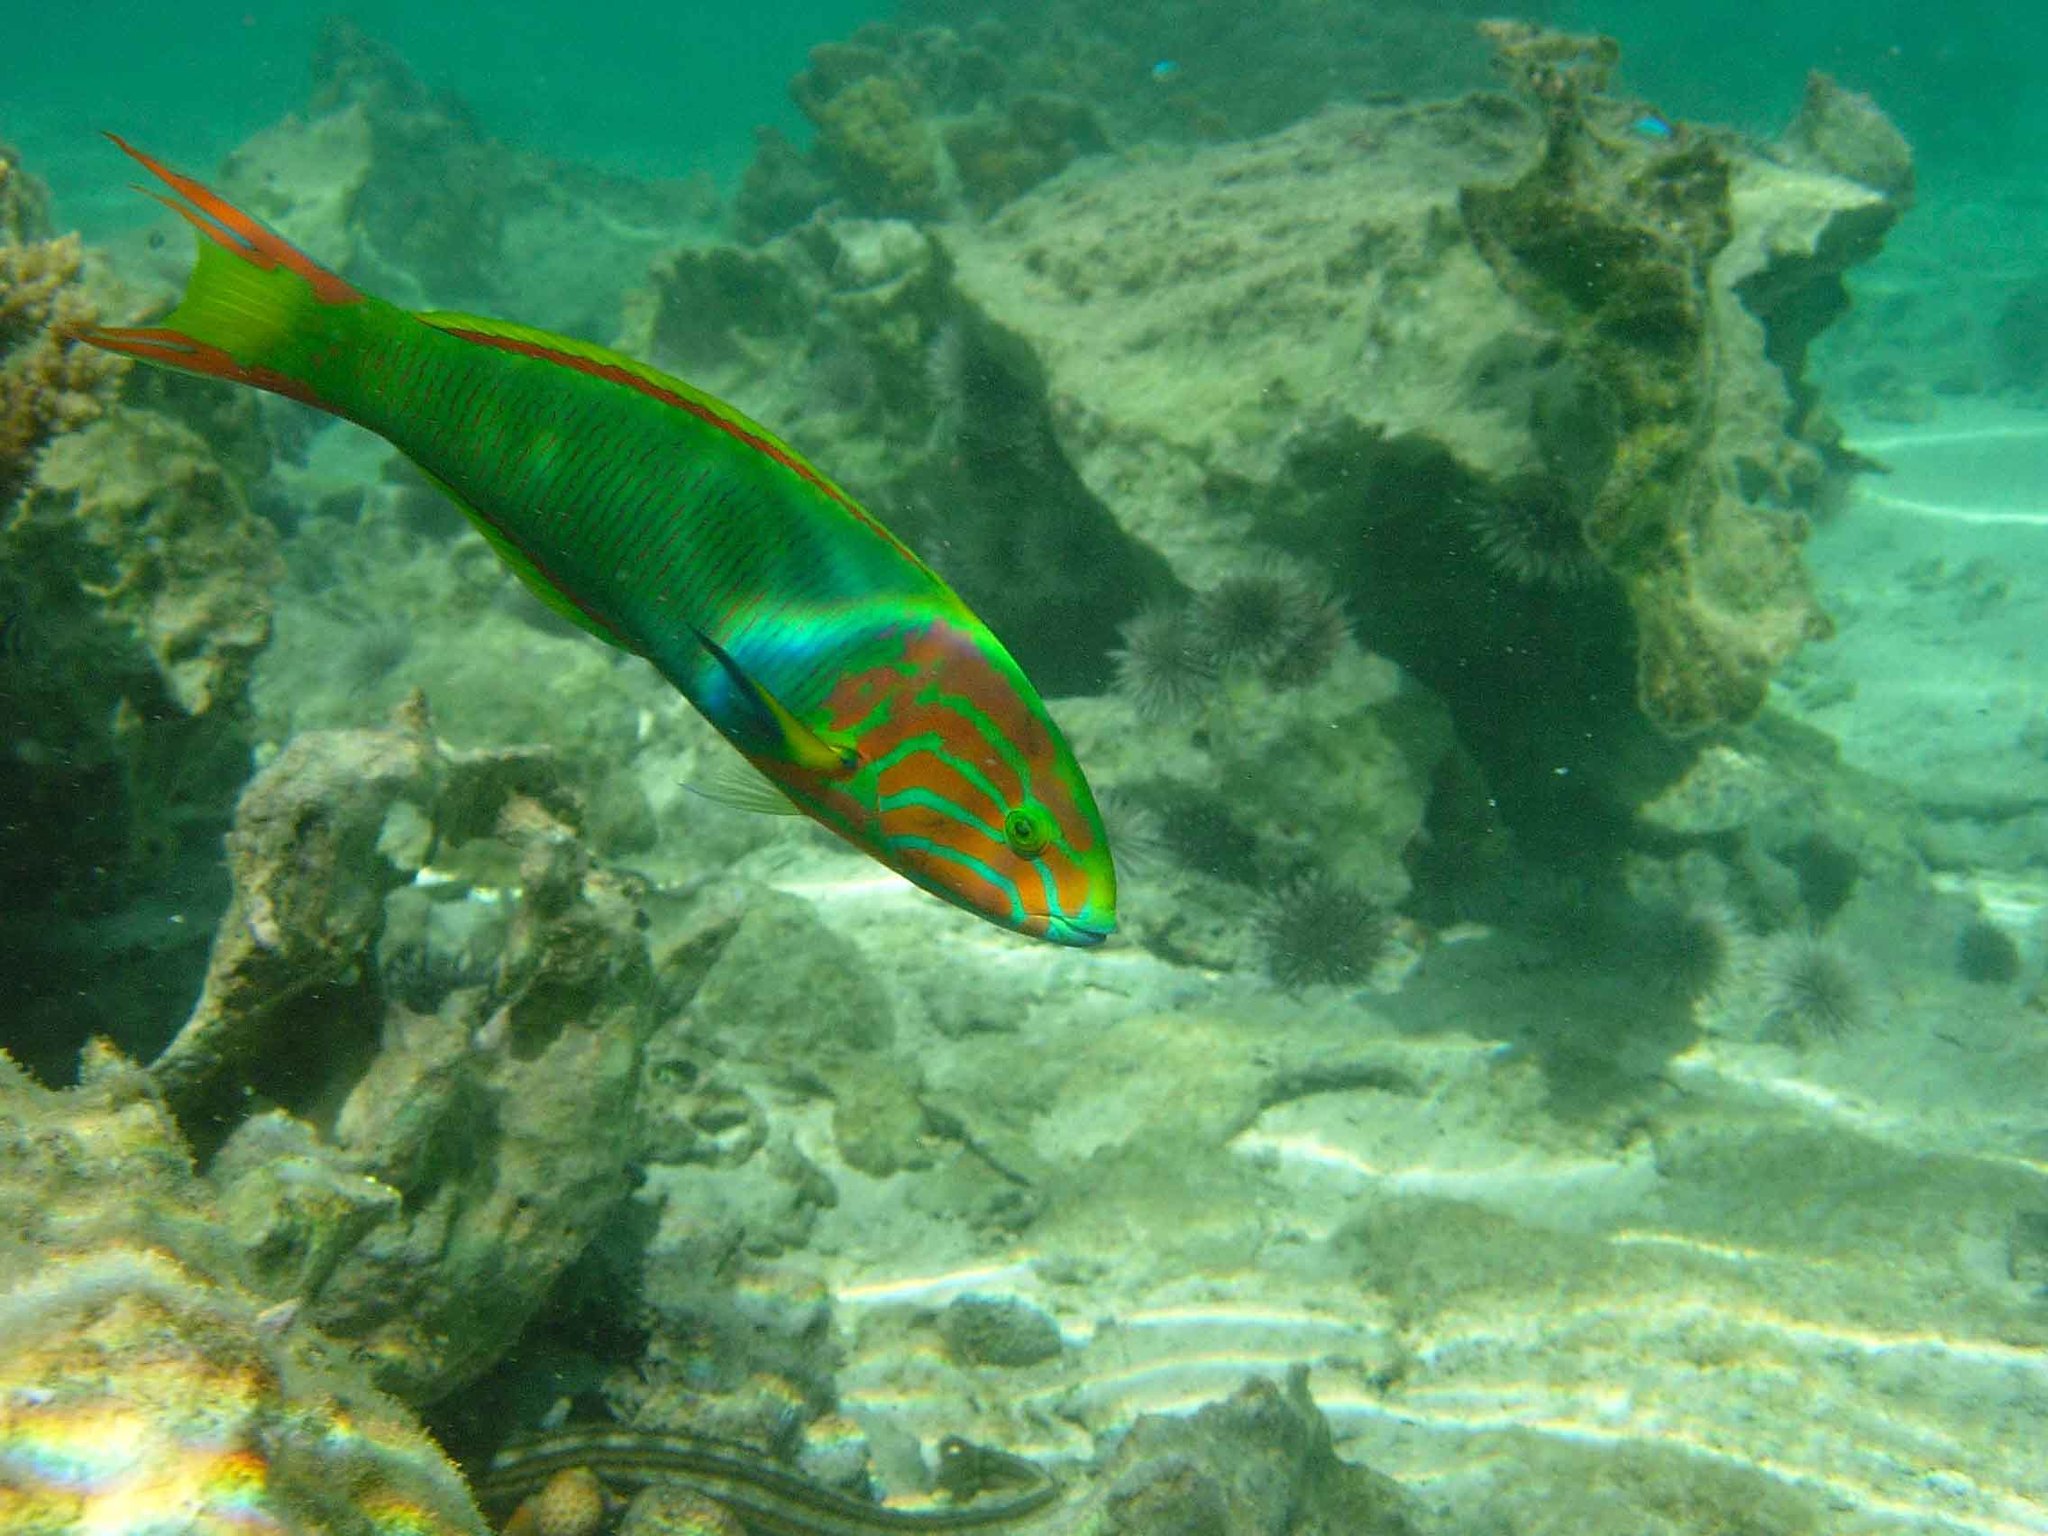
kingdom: Animalia
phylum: Chordata
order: Perciformes
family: Labridae
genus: Thalassoma
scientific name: Thalassoma lutescens
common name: Green moon wrasse
